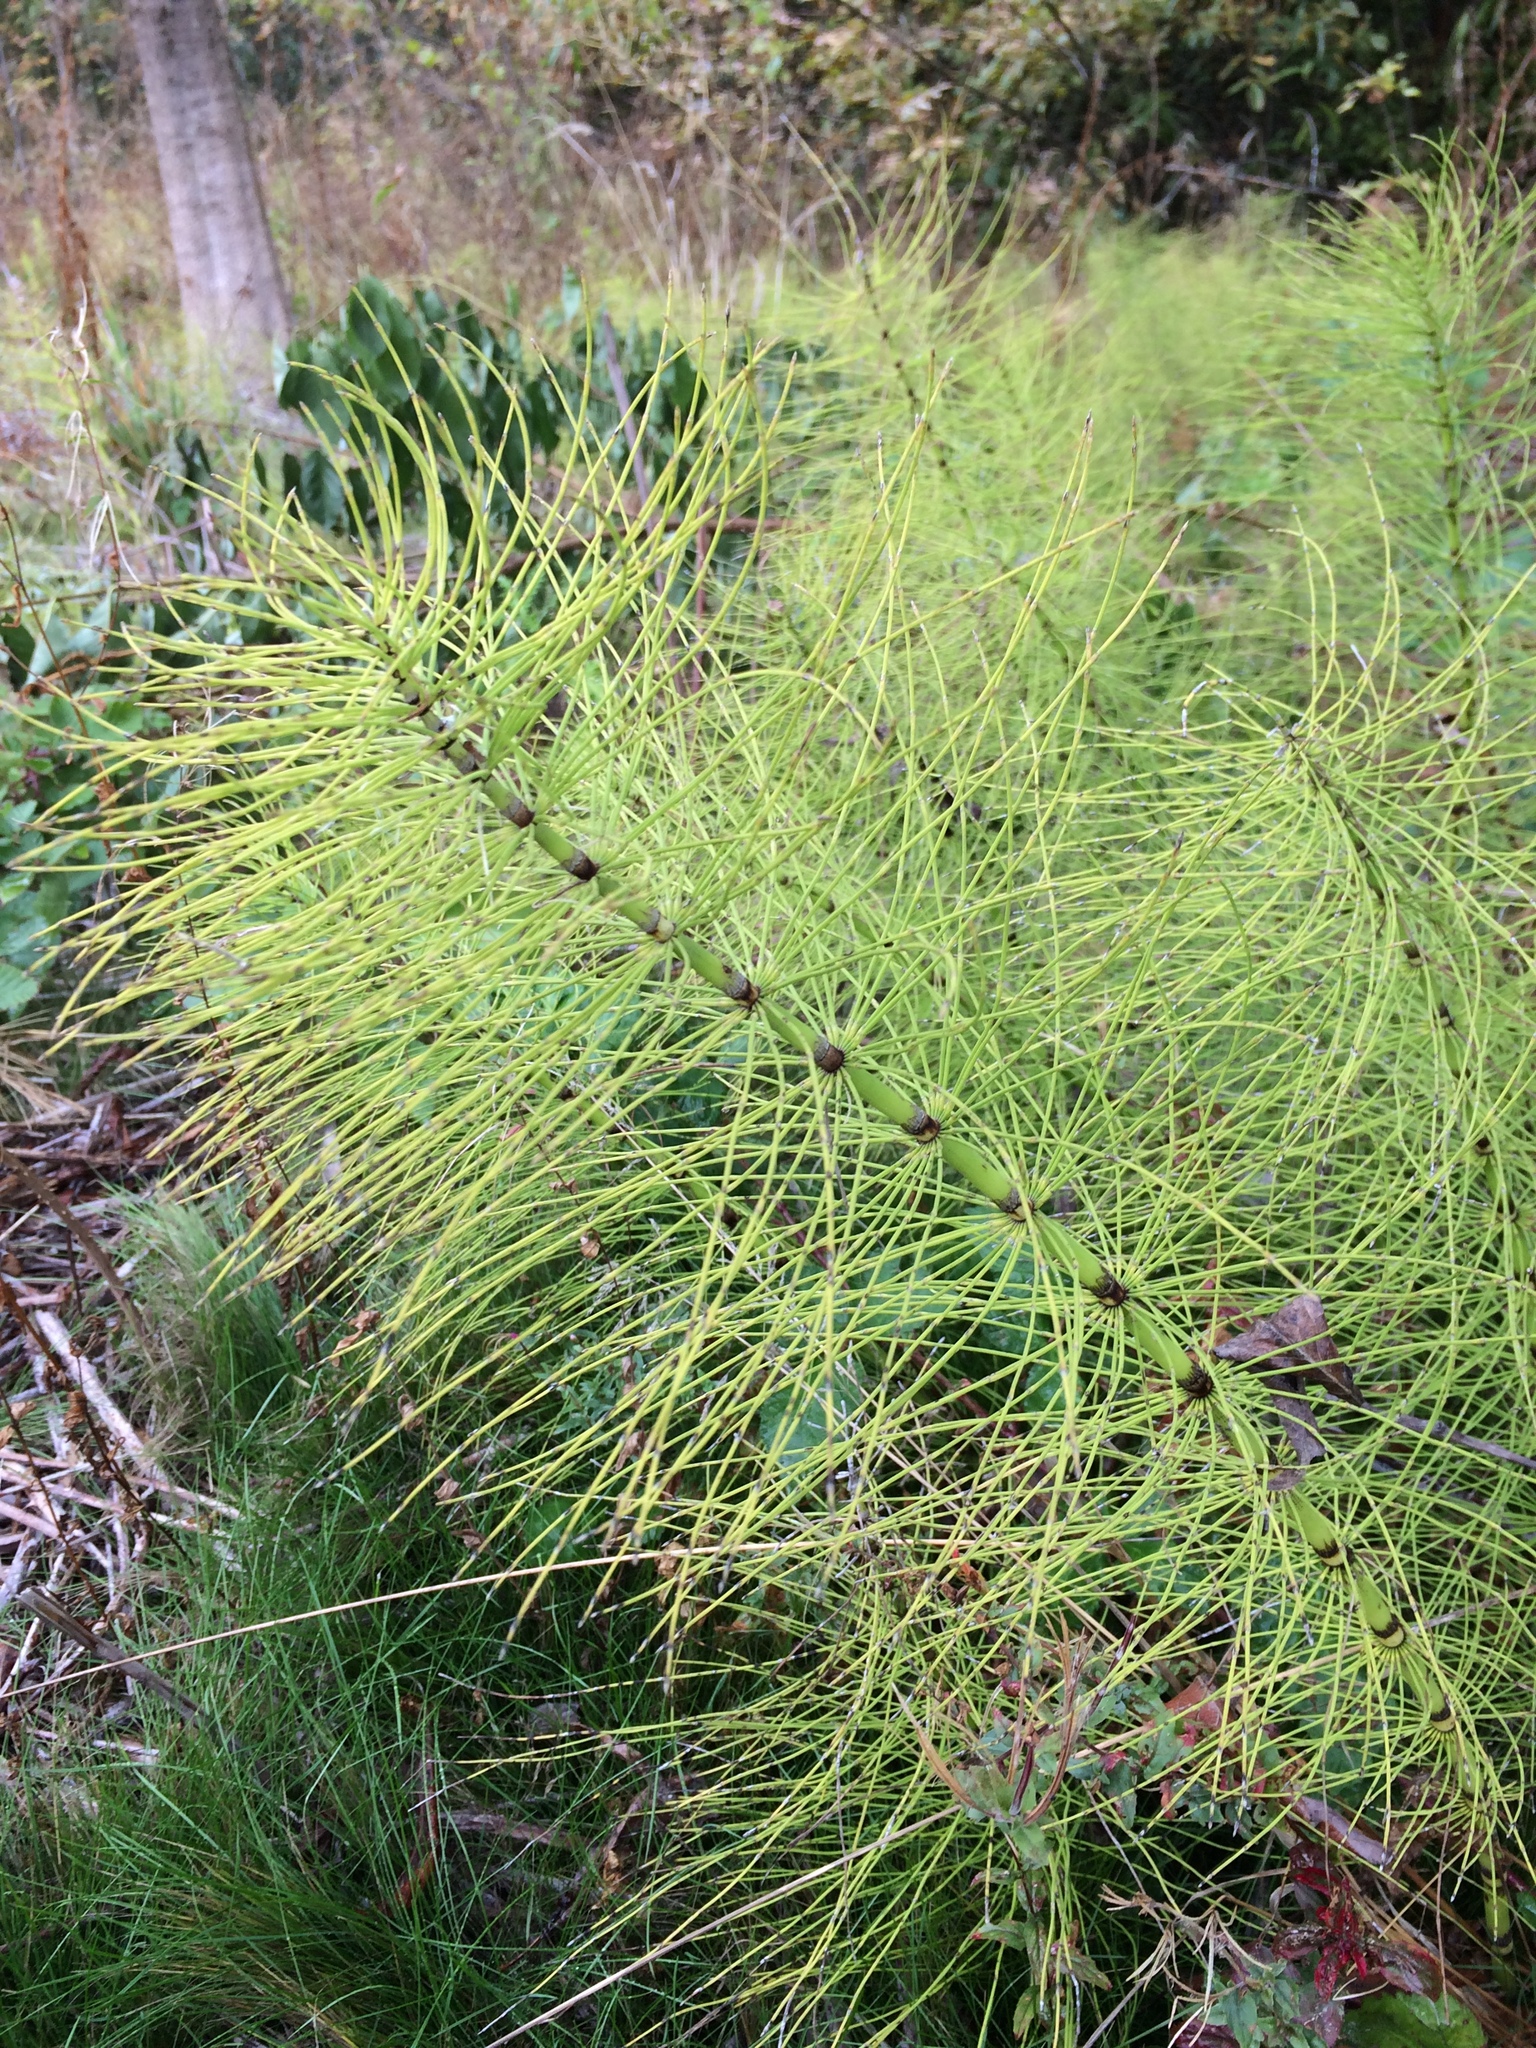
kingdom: Plantae
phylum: Tracheophyta
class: Polypodiopsida
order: Equisetales
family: Equisetaceae
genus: Equisetum
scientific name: Equisetum telmateia
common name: Great horsetail
